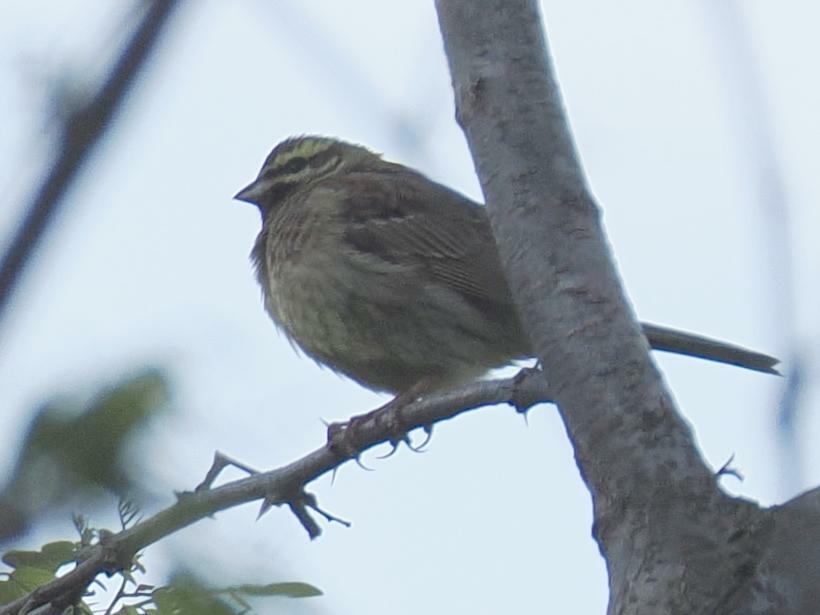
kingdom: Animalia
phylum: Chordata
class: Aves
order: Passeriformes
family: Emberizidae
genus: Emberiza
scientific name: Emberiza cirlus
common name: Cirl bunting
